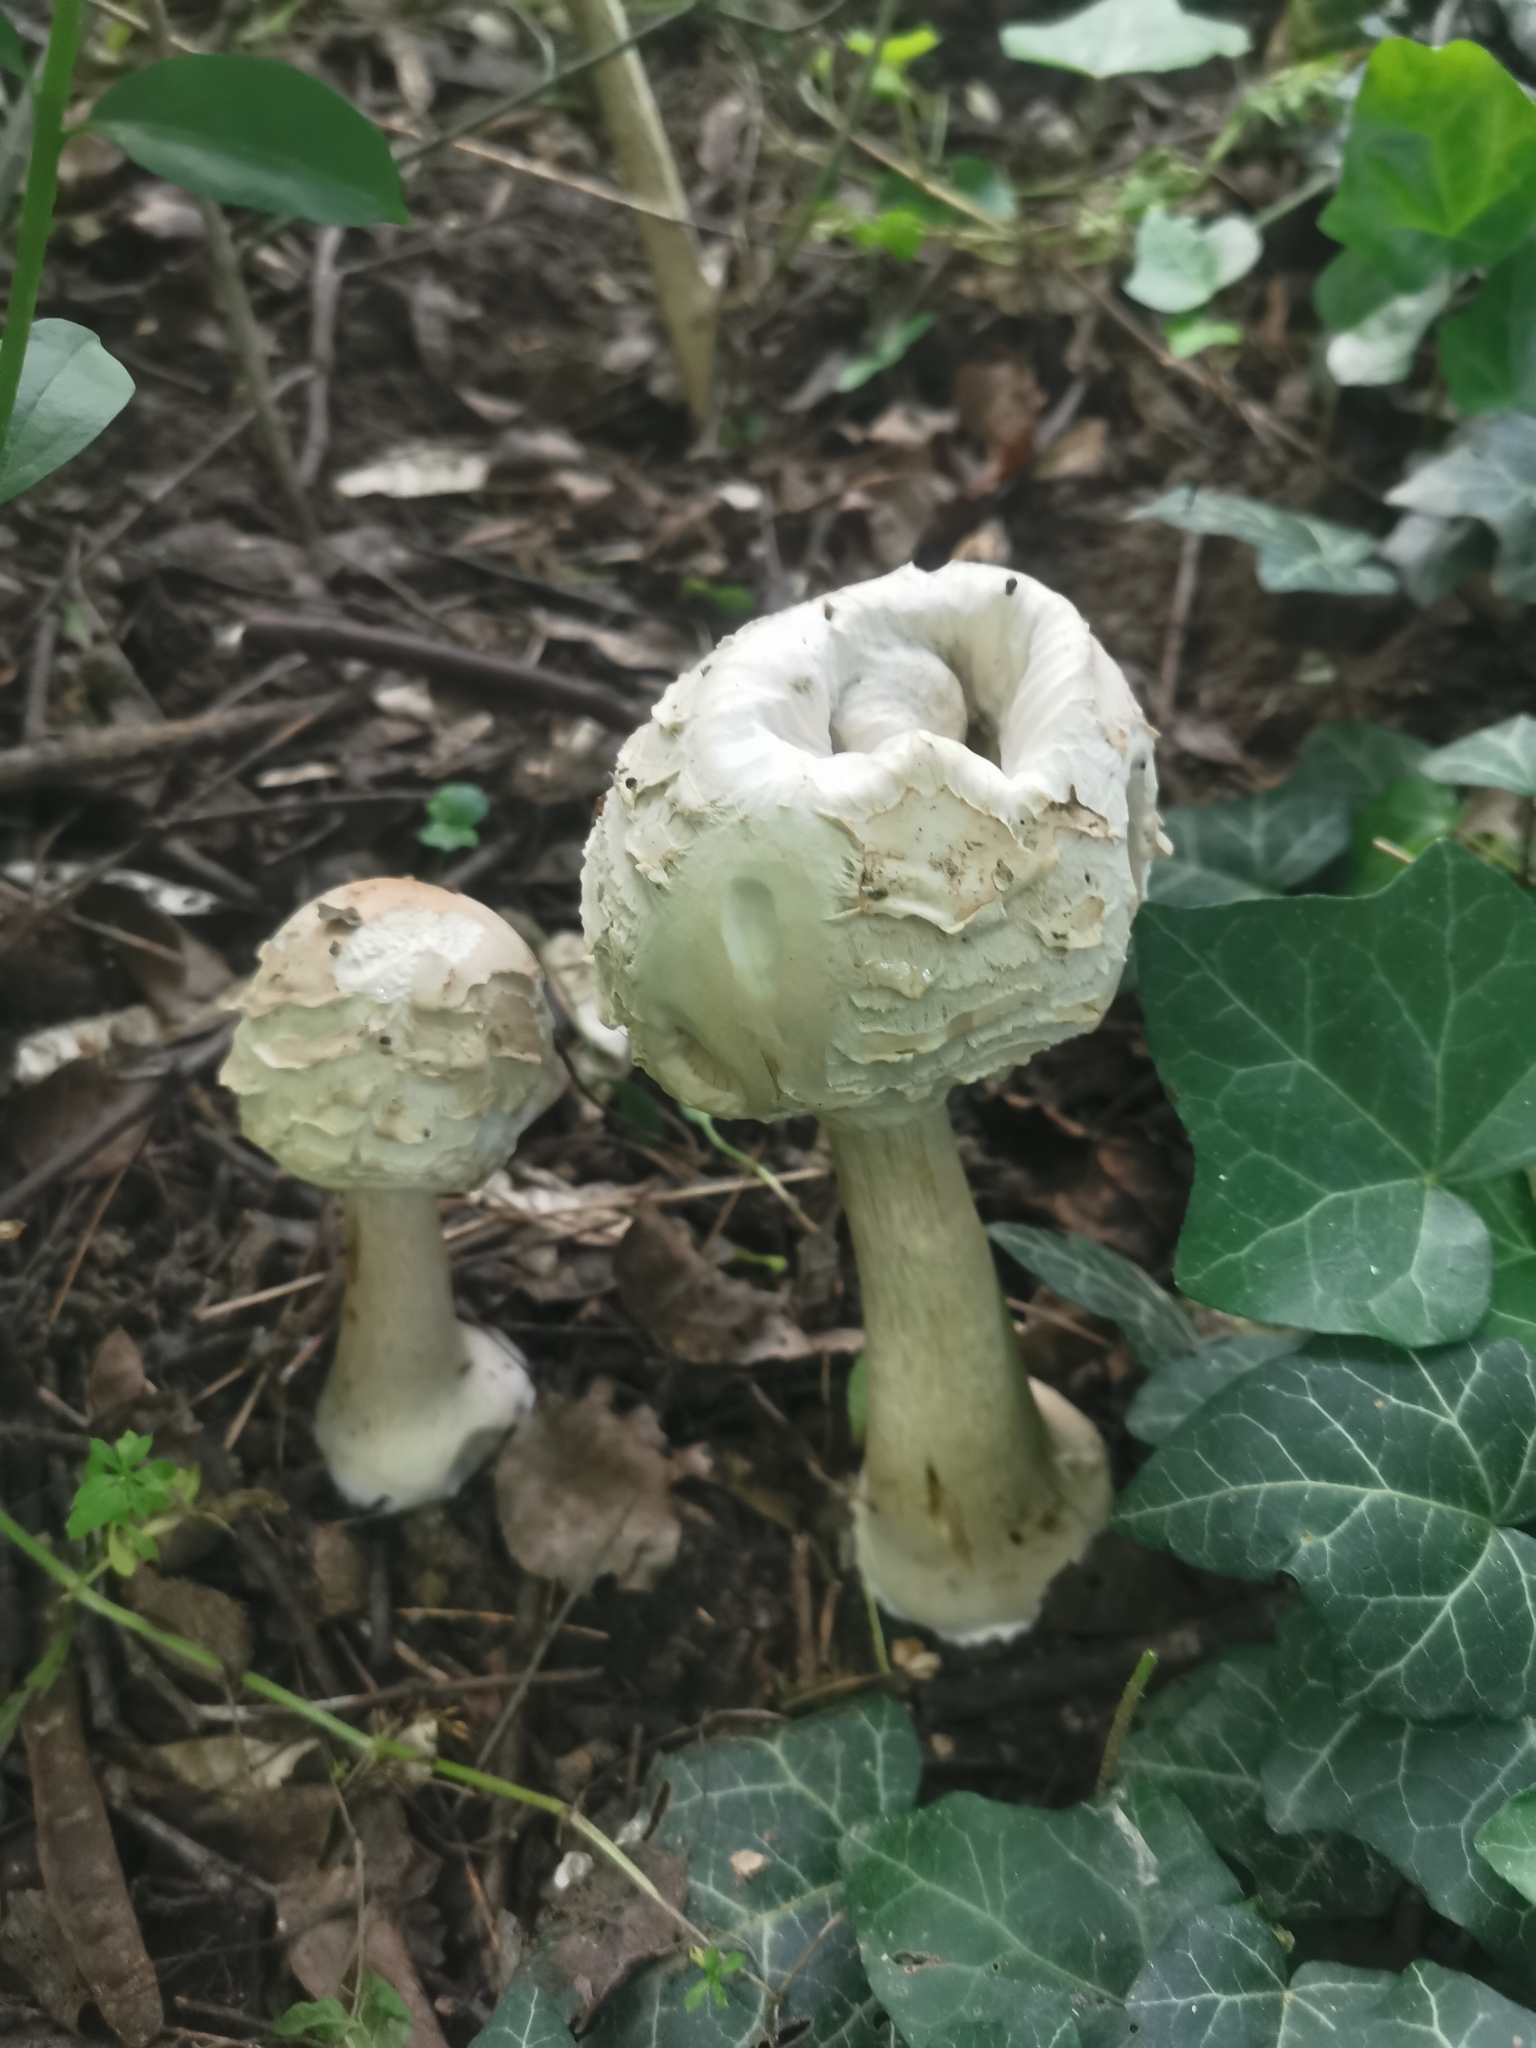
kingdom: Fungi
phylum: Basidiomycota
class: Agaricomycetes
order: Agaricales
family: Agaricaceae
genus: Chlorophyllum
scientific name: Chlorophyllum brunneum
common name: Brown parasol
